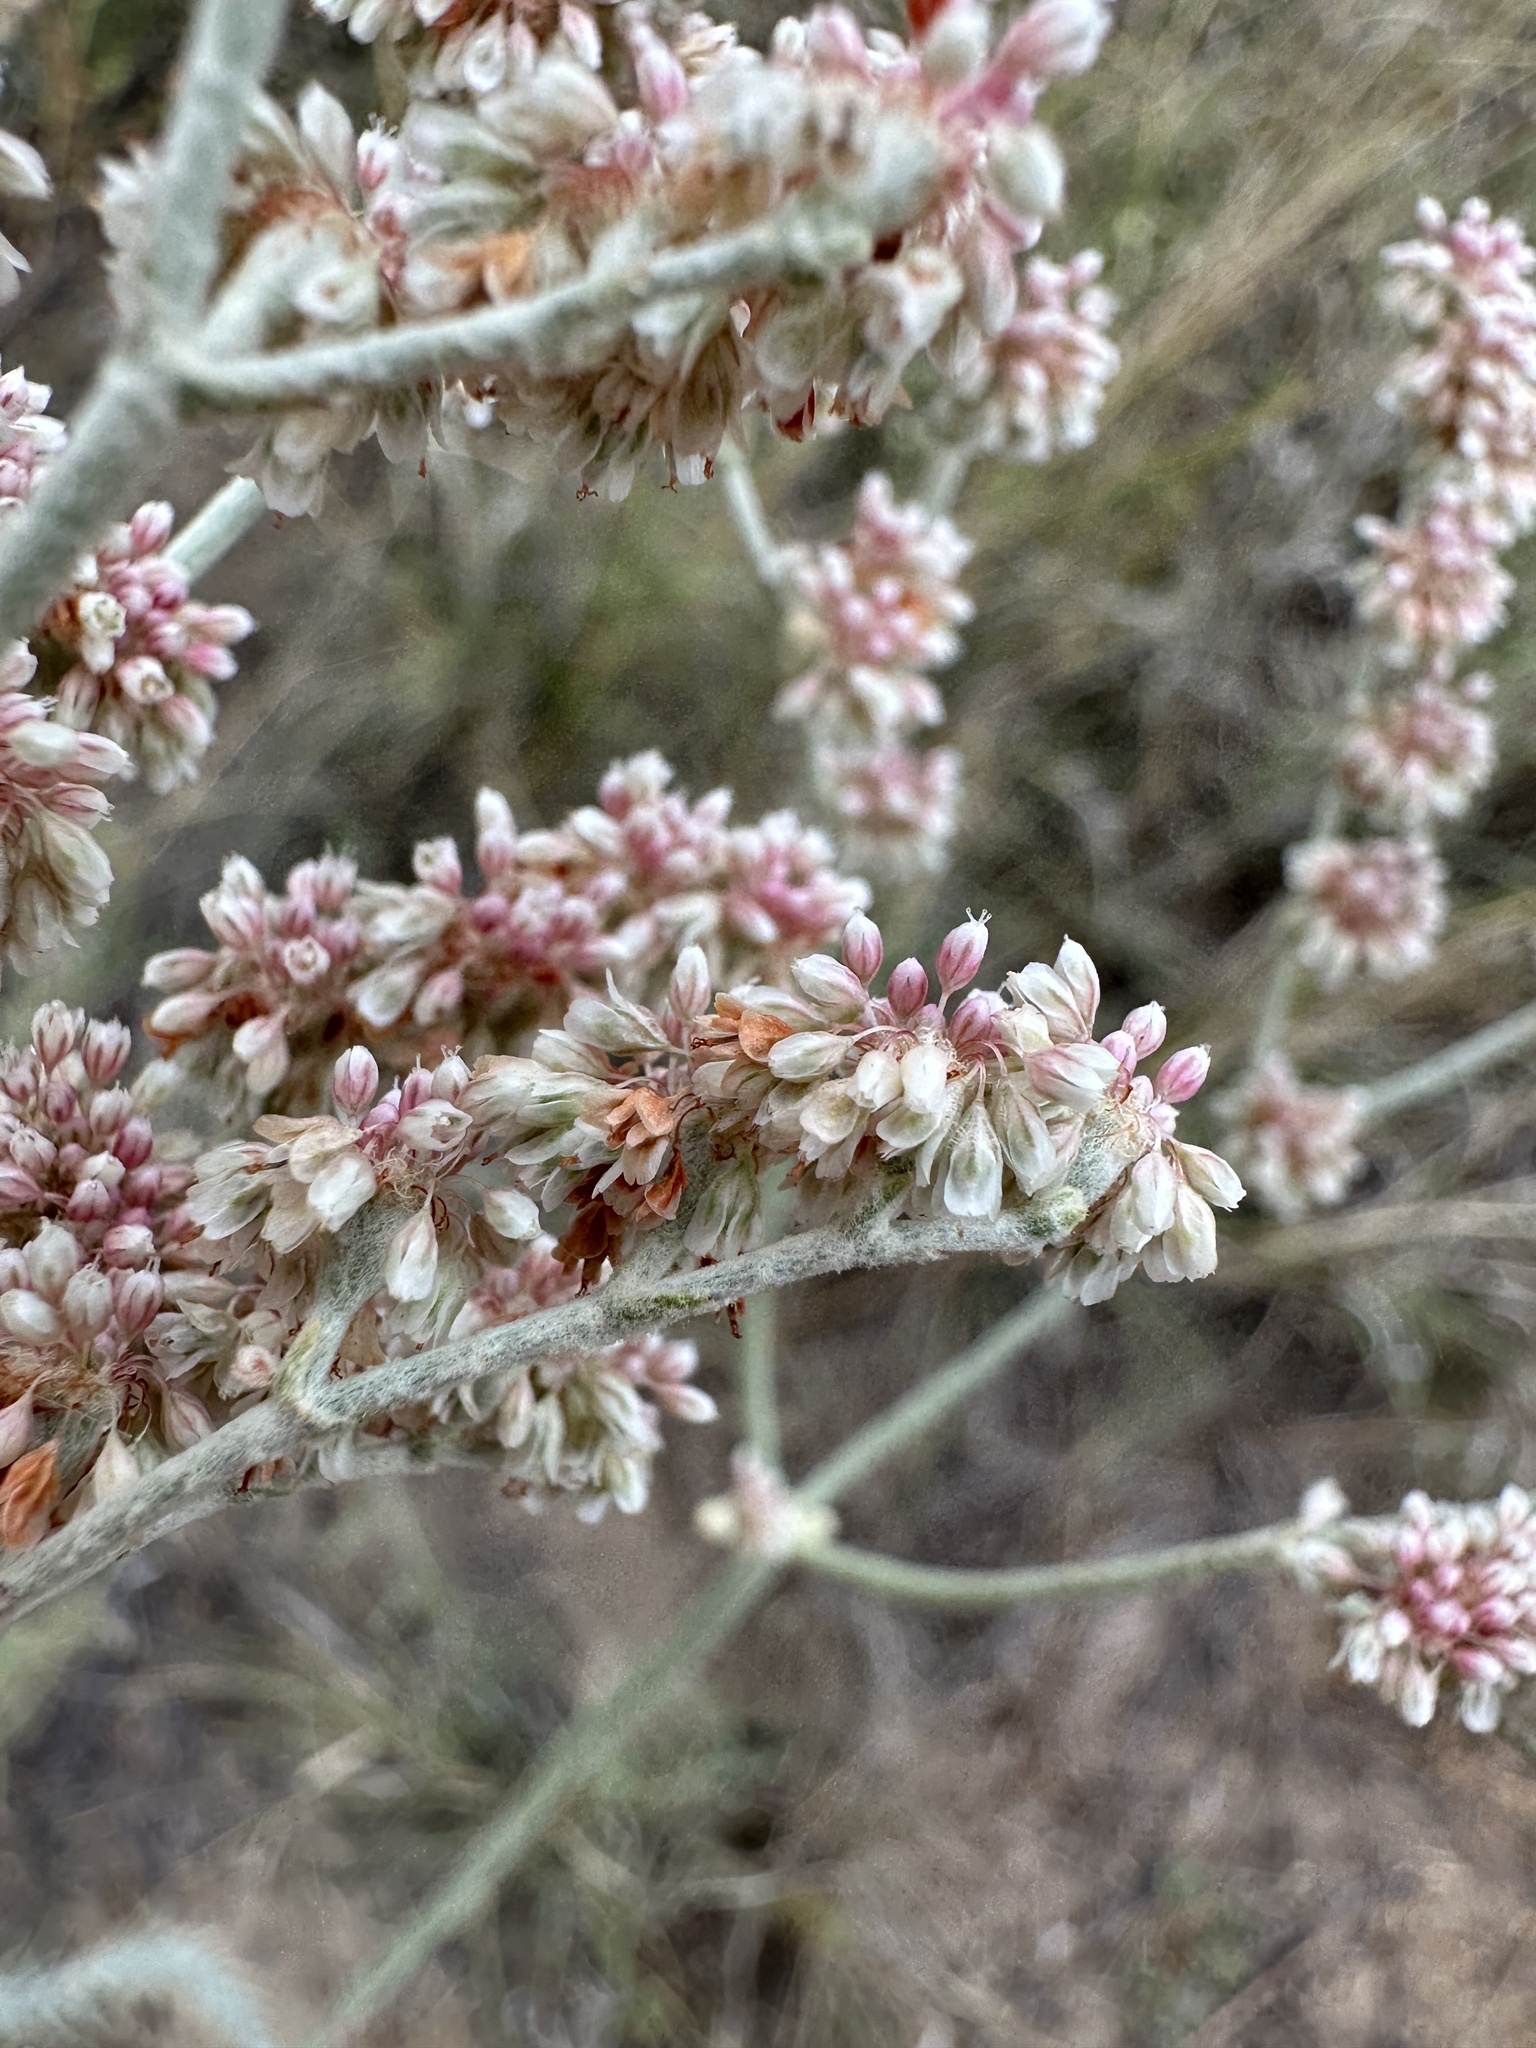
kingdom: Plantae
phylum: Tracheophyta
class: Magnoliopsida
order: Caryophyllales
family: Polygonaceae
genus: Eriogonum
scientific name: Eriogonum annuum
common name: Annual wild buckwheat
